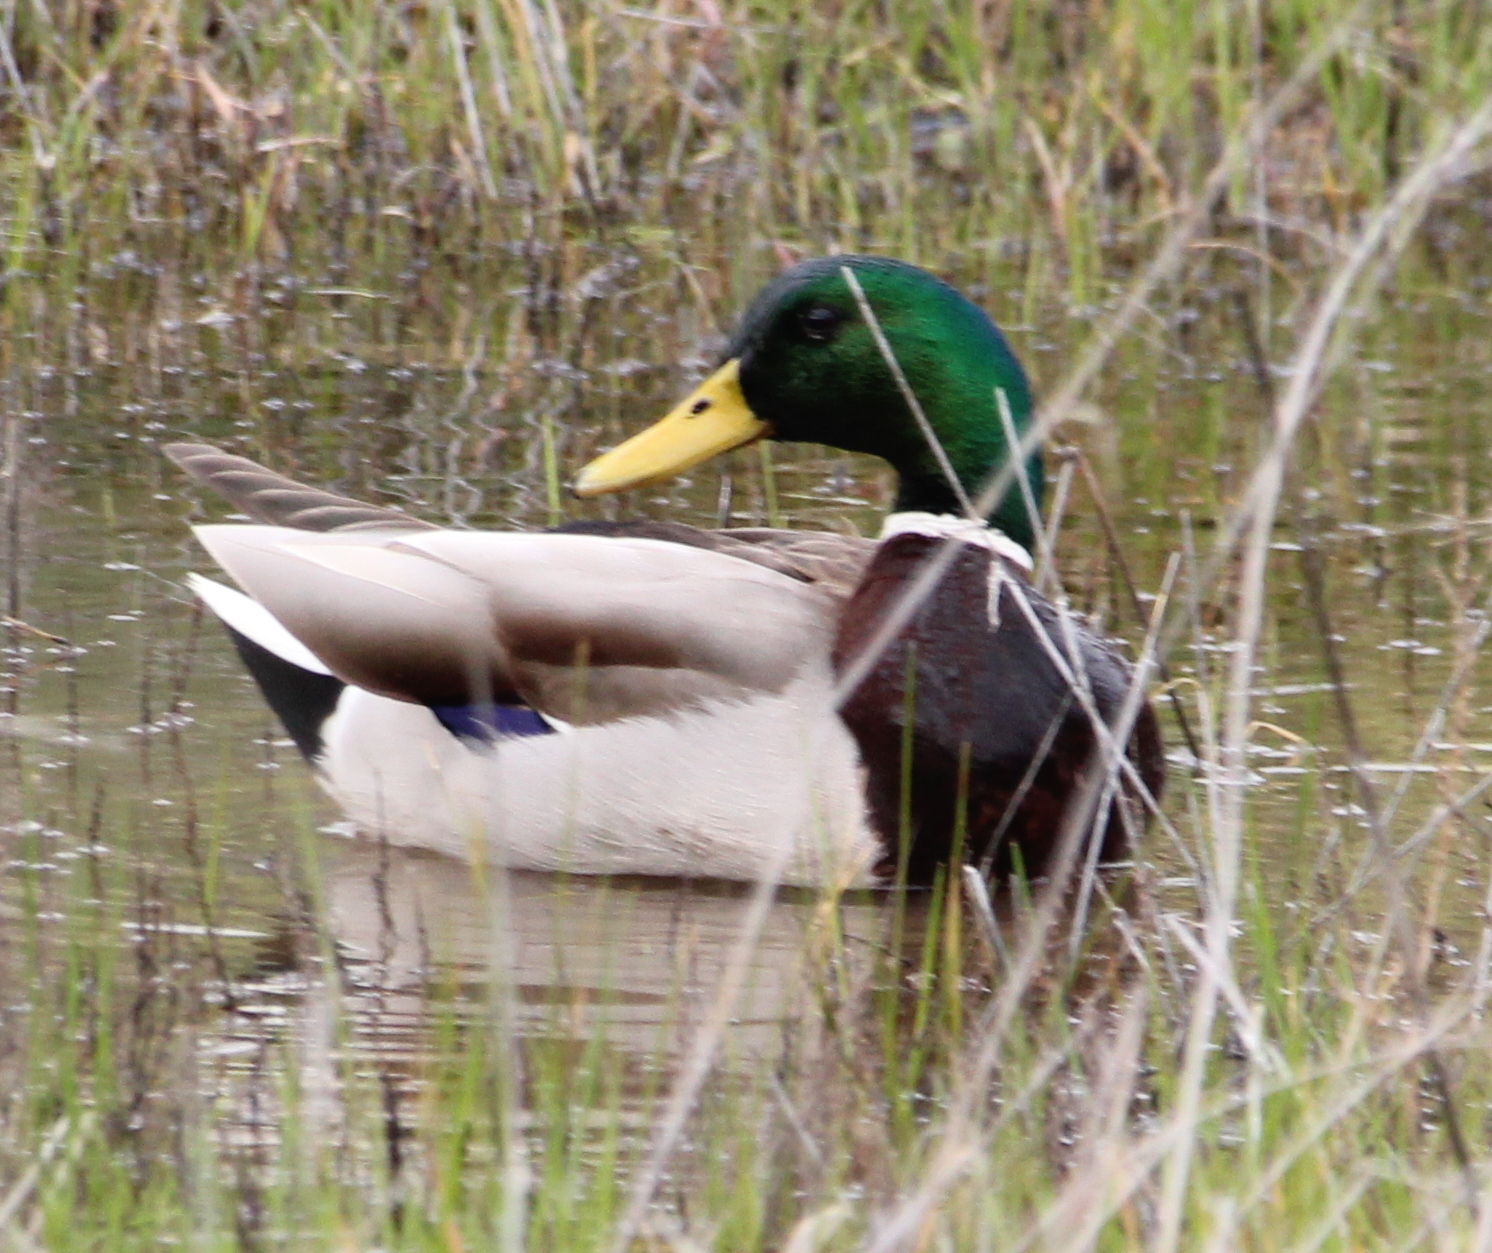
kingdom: Animalia
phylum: Chordata
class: Aves
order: Anseriformes
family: Anatidae
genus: Anas
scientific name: Anas platyrhynchos
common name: Mallard
